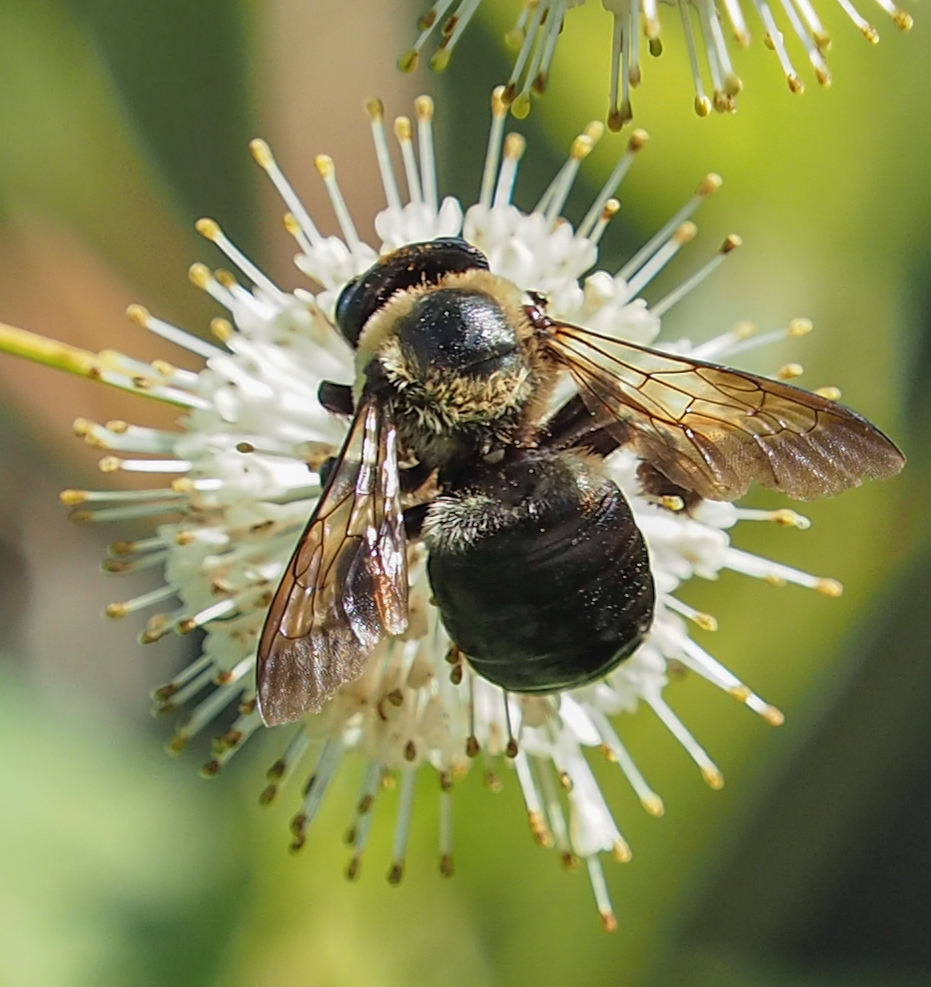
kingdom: Animalia
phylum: Arthropoda
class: Insecta
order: Hymenoptera
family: Apidae
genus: Xylocopa
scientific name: Xylocopa virginica
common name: Carpenter bee
